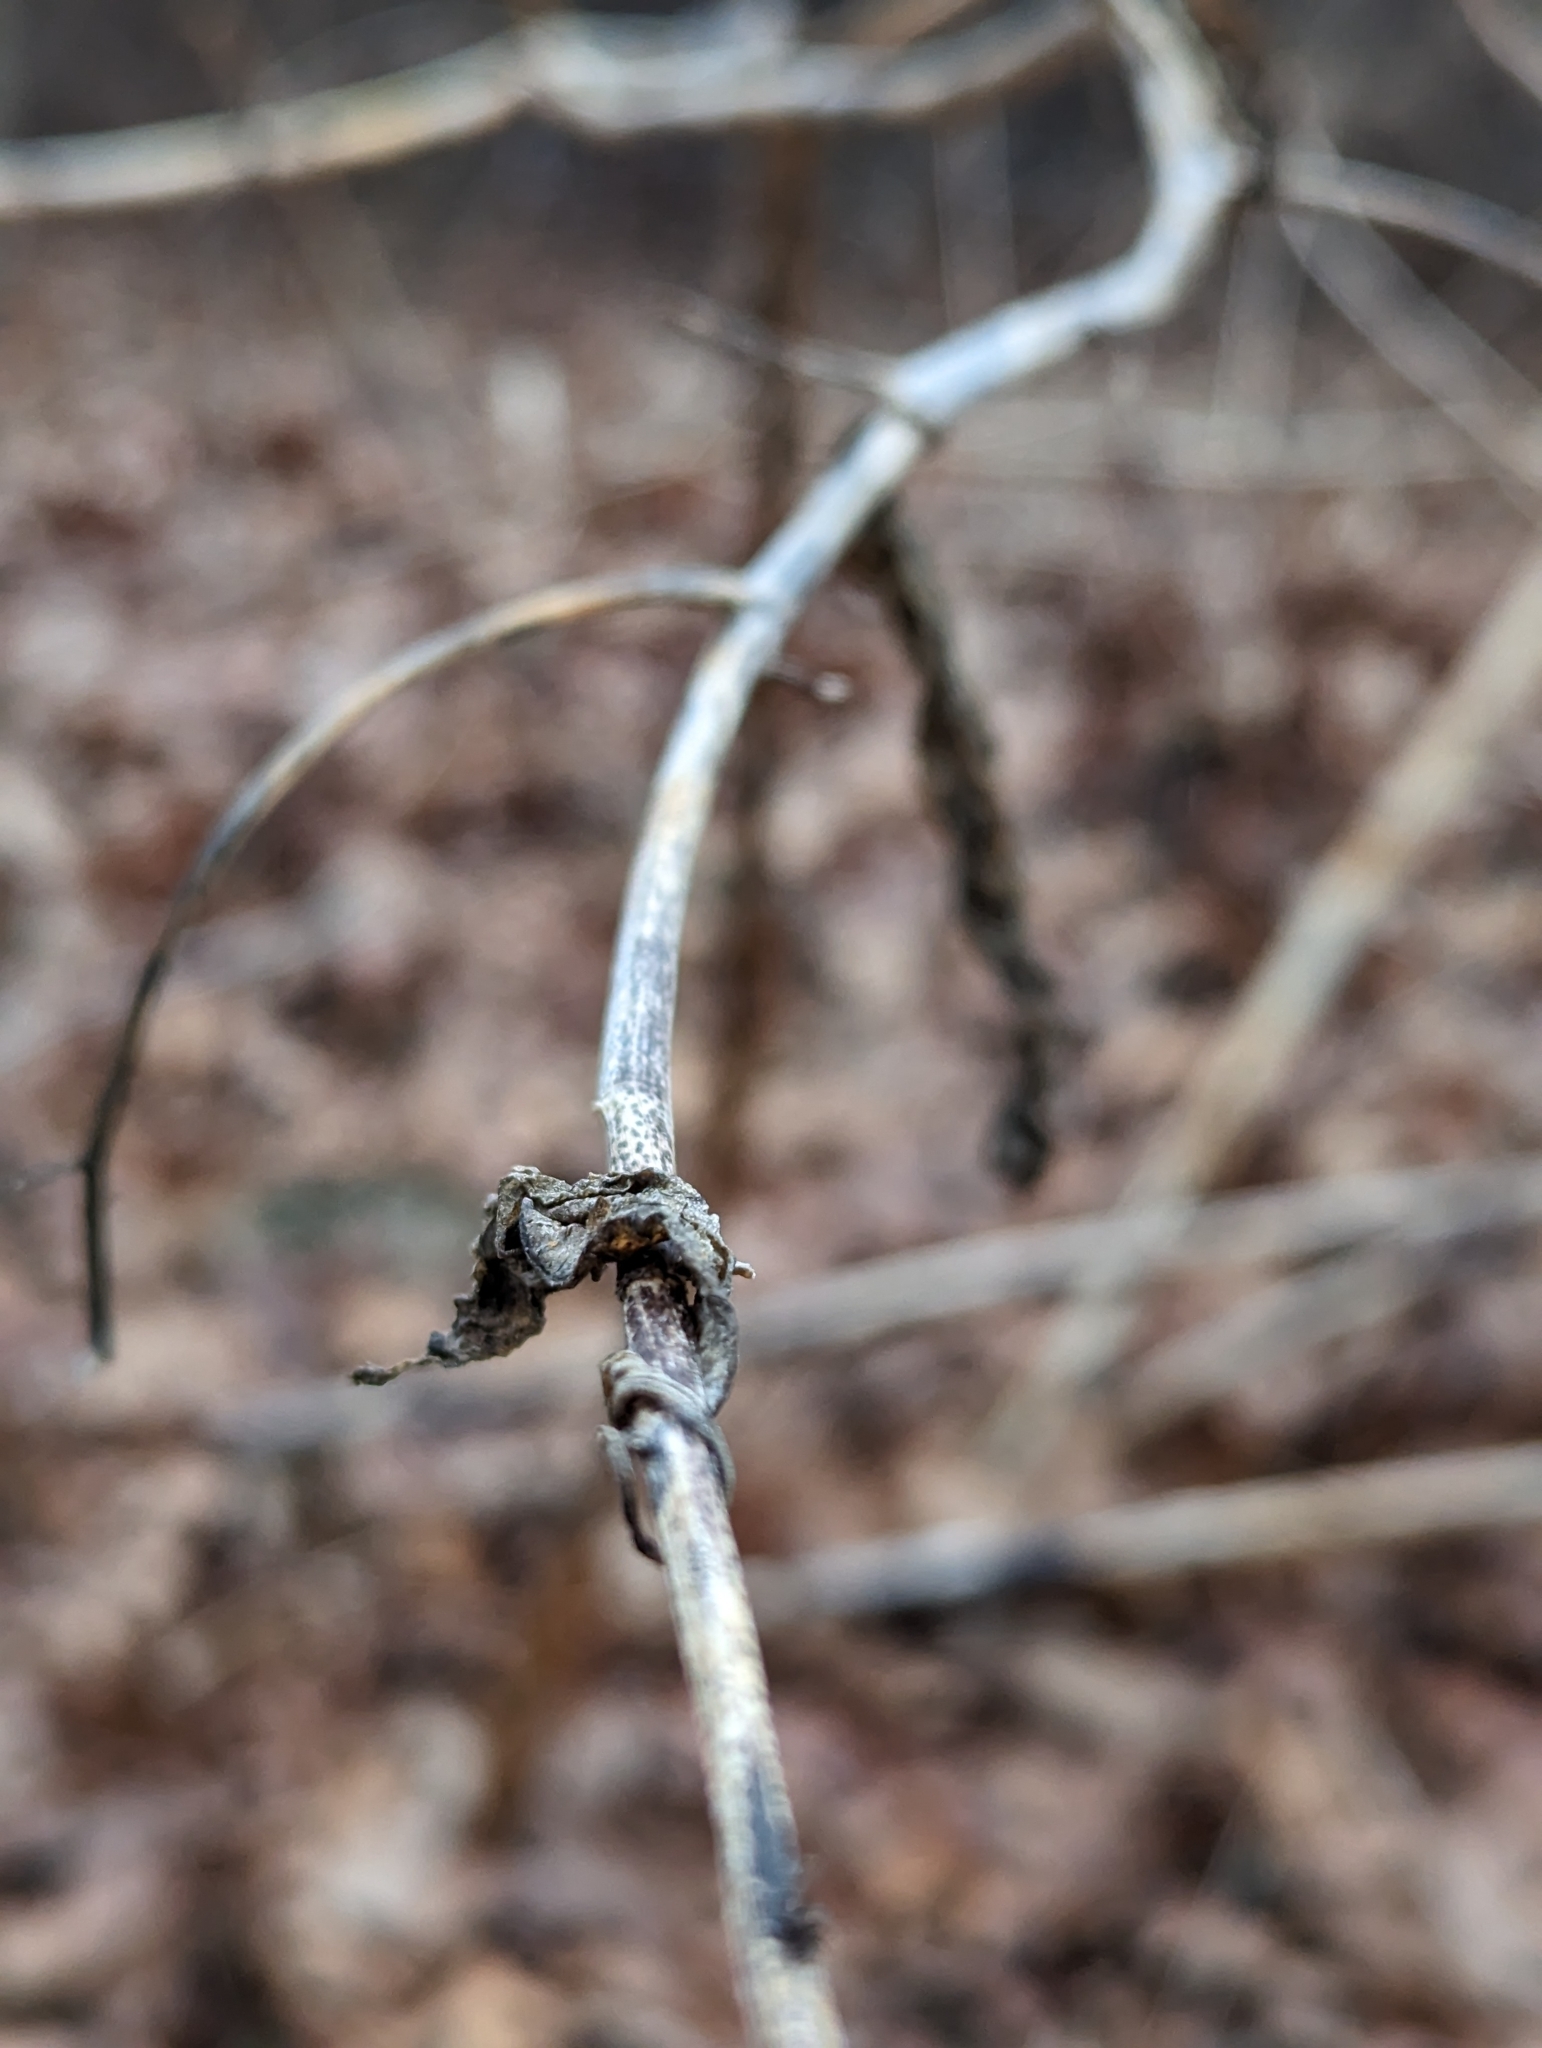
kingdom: Plantae
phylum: Tracheophyta
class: Magnoliopsida
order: Caryophyllales
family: Phytolaccaceae
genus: Phytolacca
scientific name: Phytolacca americana
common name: American pokeweed
